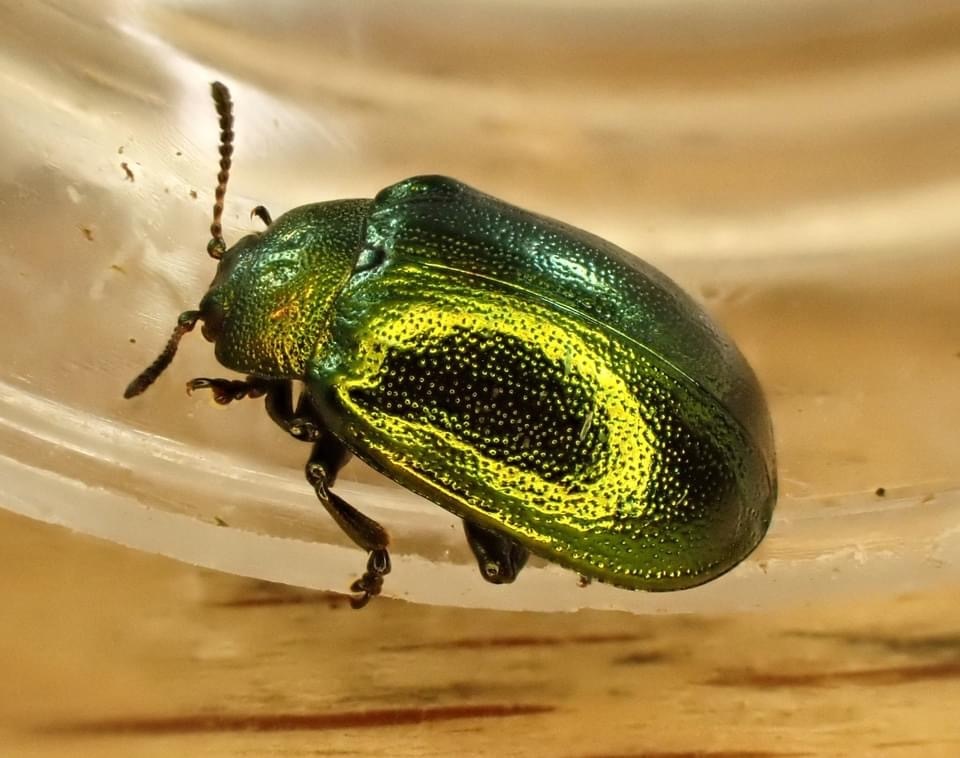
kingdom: Animalia
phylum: Arthropoda
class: Insecta
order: Coleoptera
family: Chrysomelidae
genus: Plagiosterna
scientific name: Plagiosterna aenea
